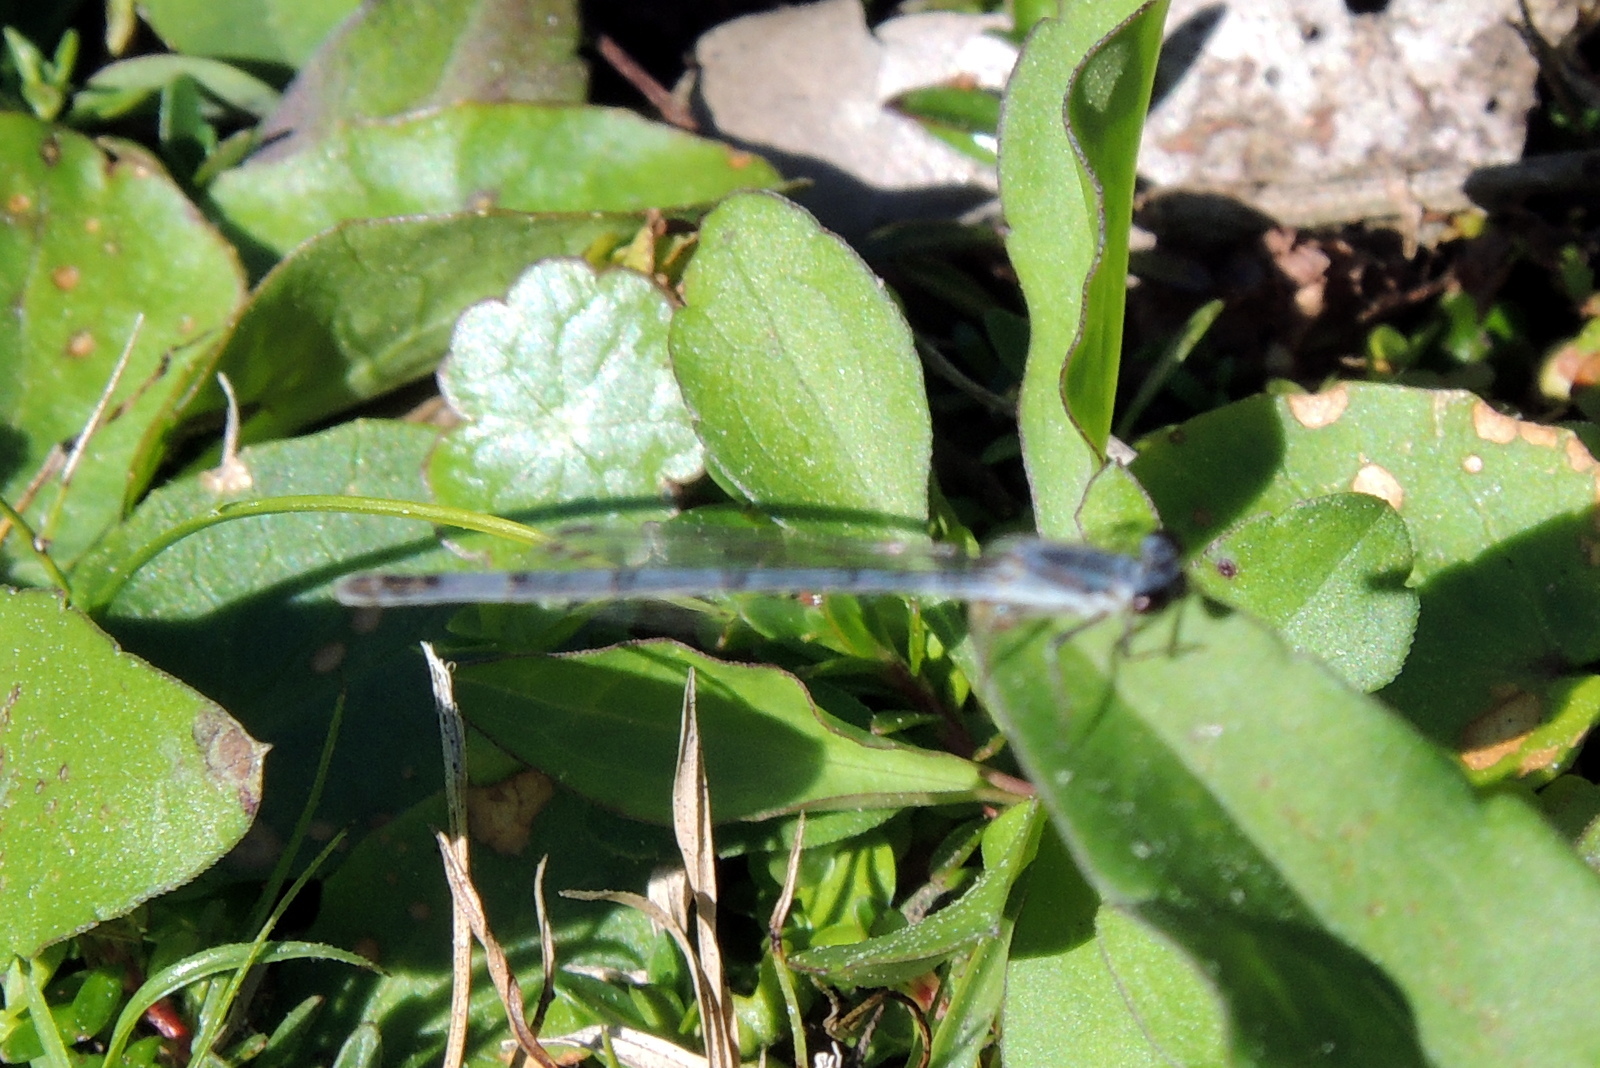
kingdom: Animalia
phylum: Arthropoda
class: Insecta
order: Odonata
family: Coenagrionidae
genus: Ischnura
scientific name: Ischnura posita
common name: Fragile forktail
